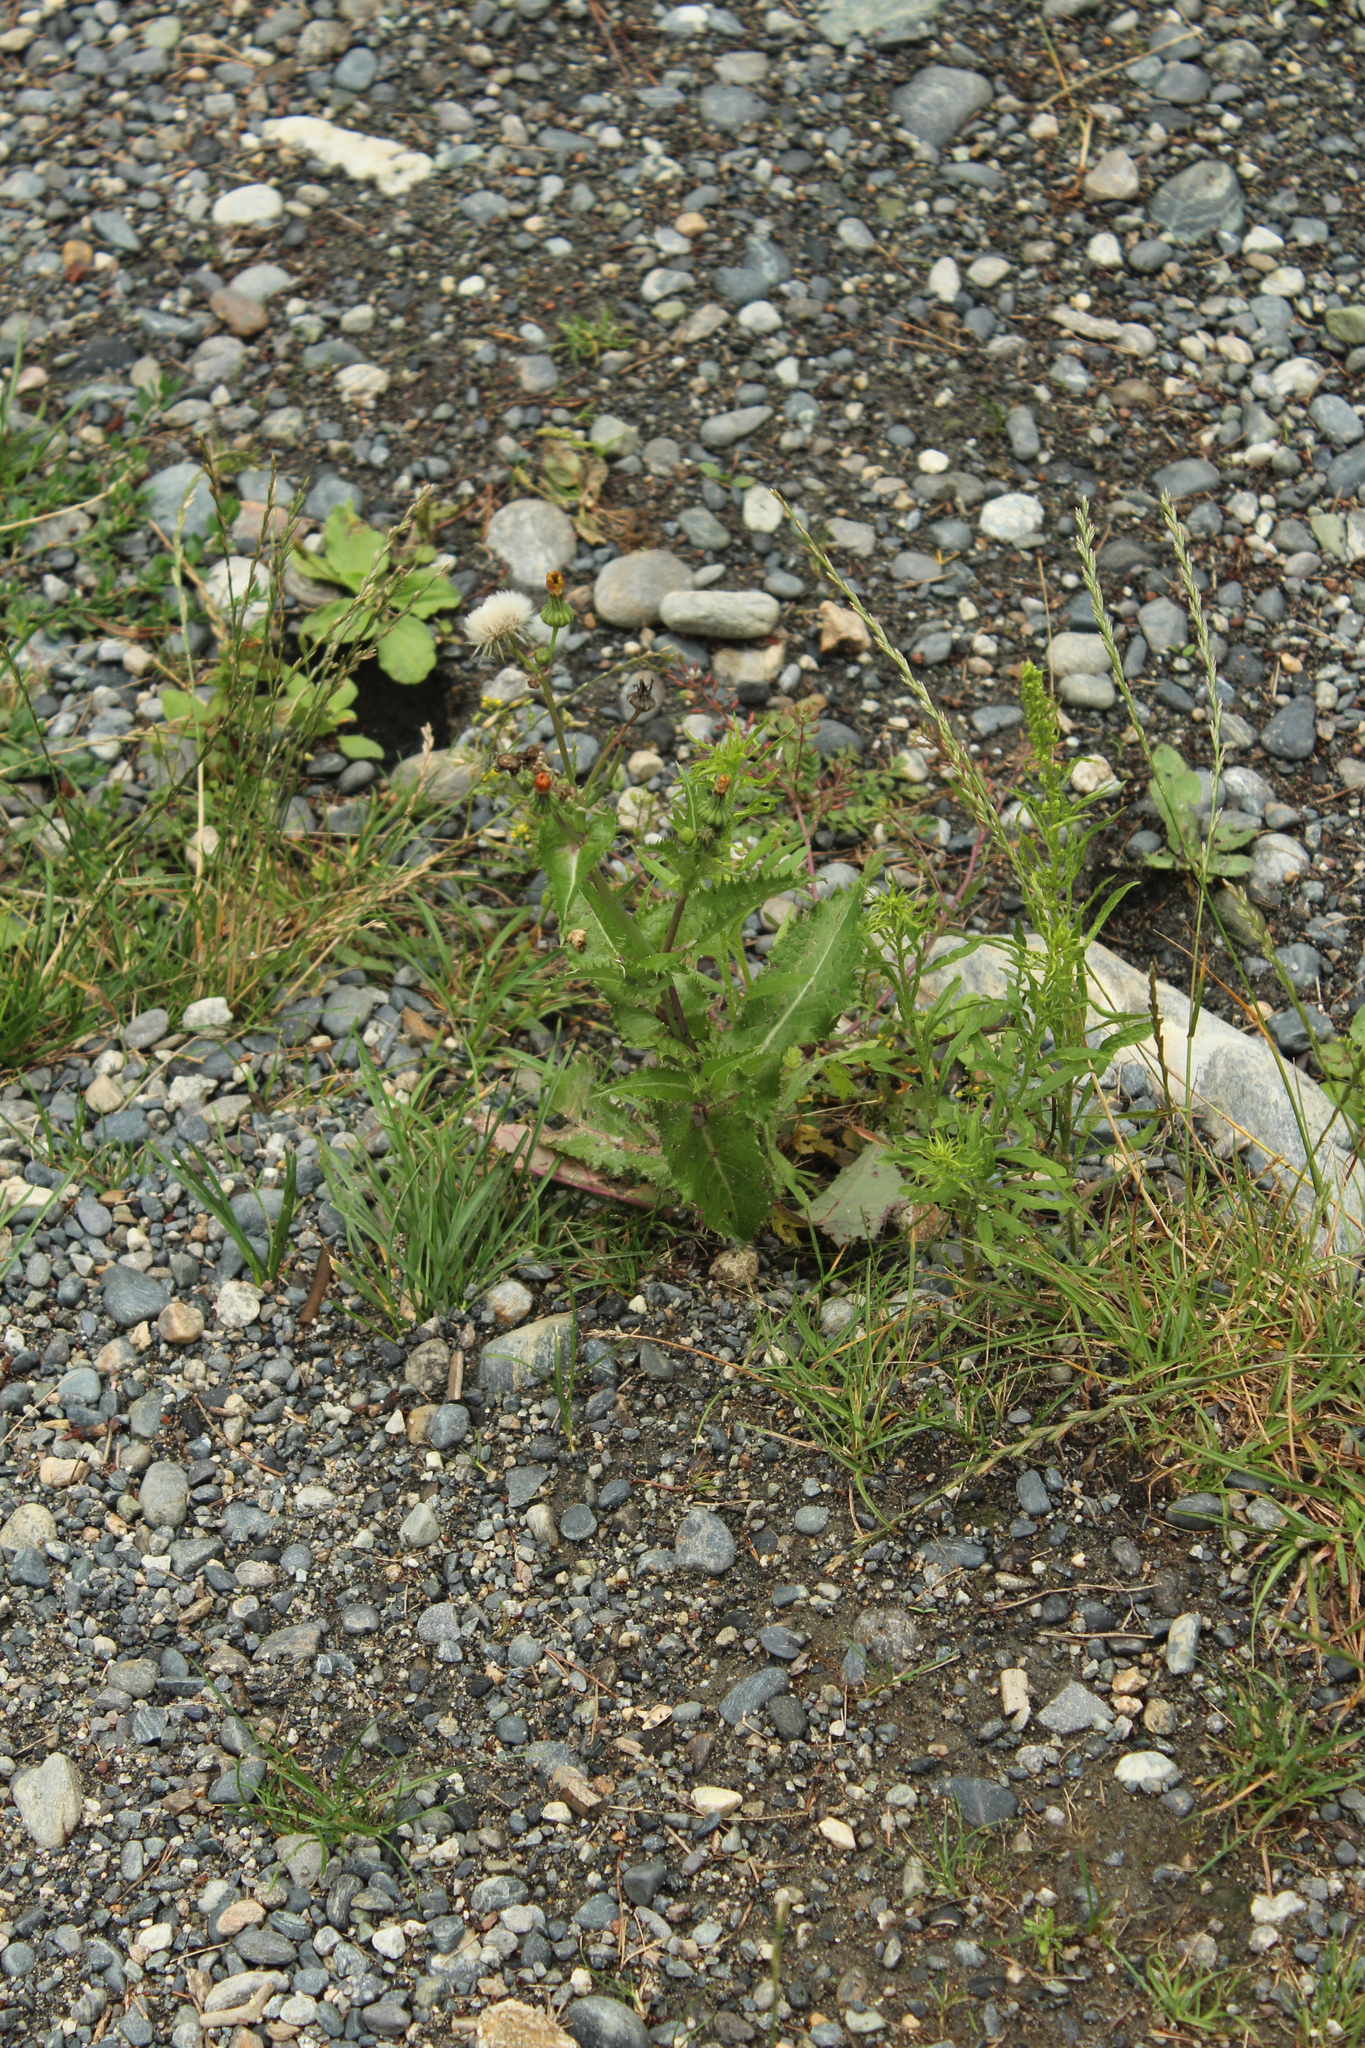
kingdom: Plantae
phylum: Tracheophyta
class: Magnoliopsida
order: Asterales
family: Asteraceae
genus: Sonchus
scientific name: Sonchus asper
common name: Prickly sow-thistle
